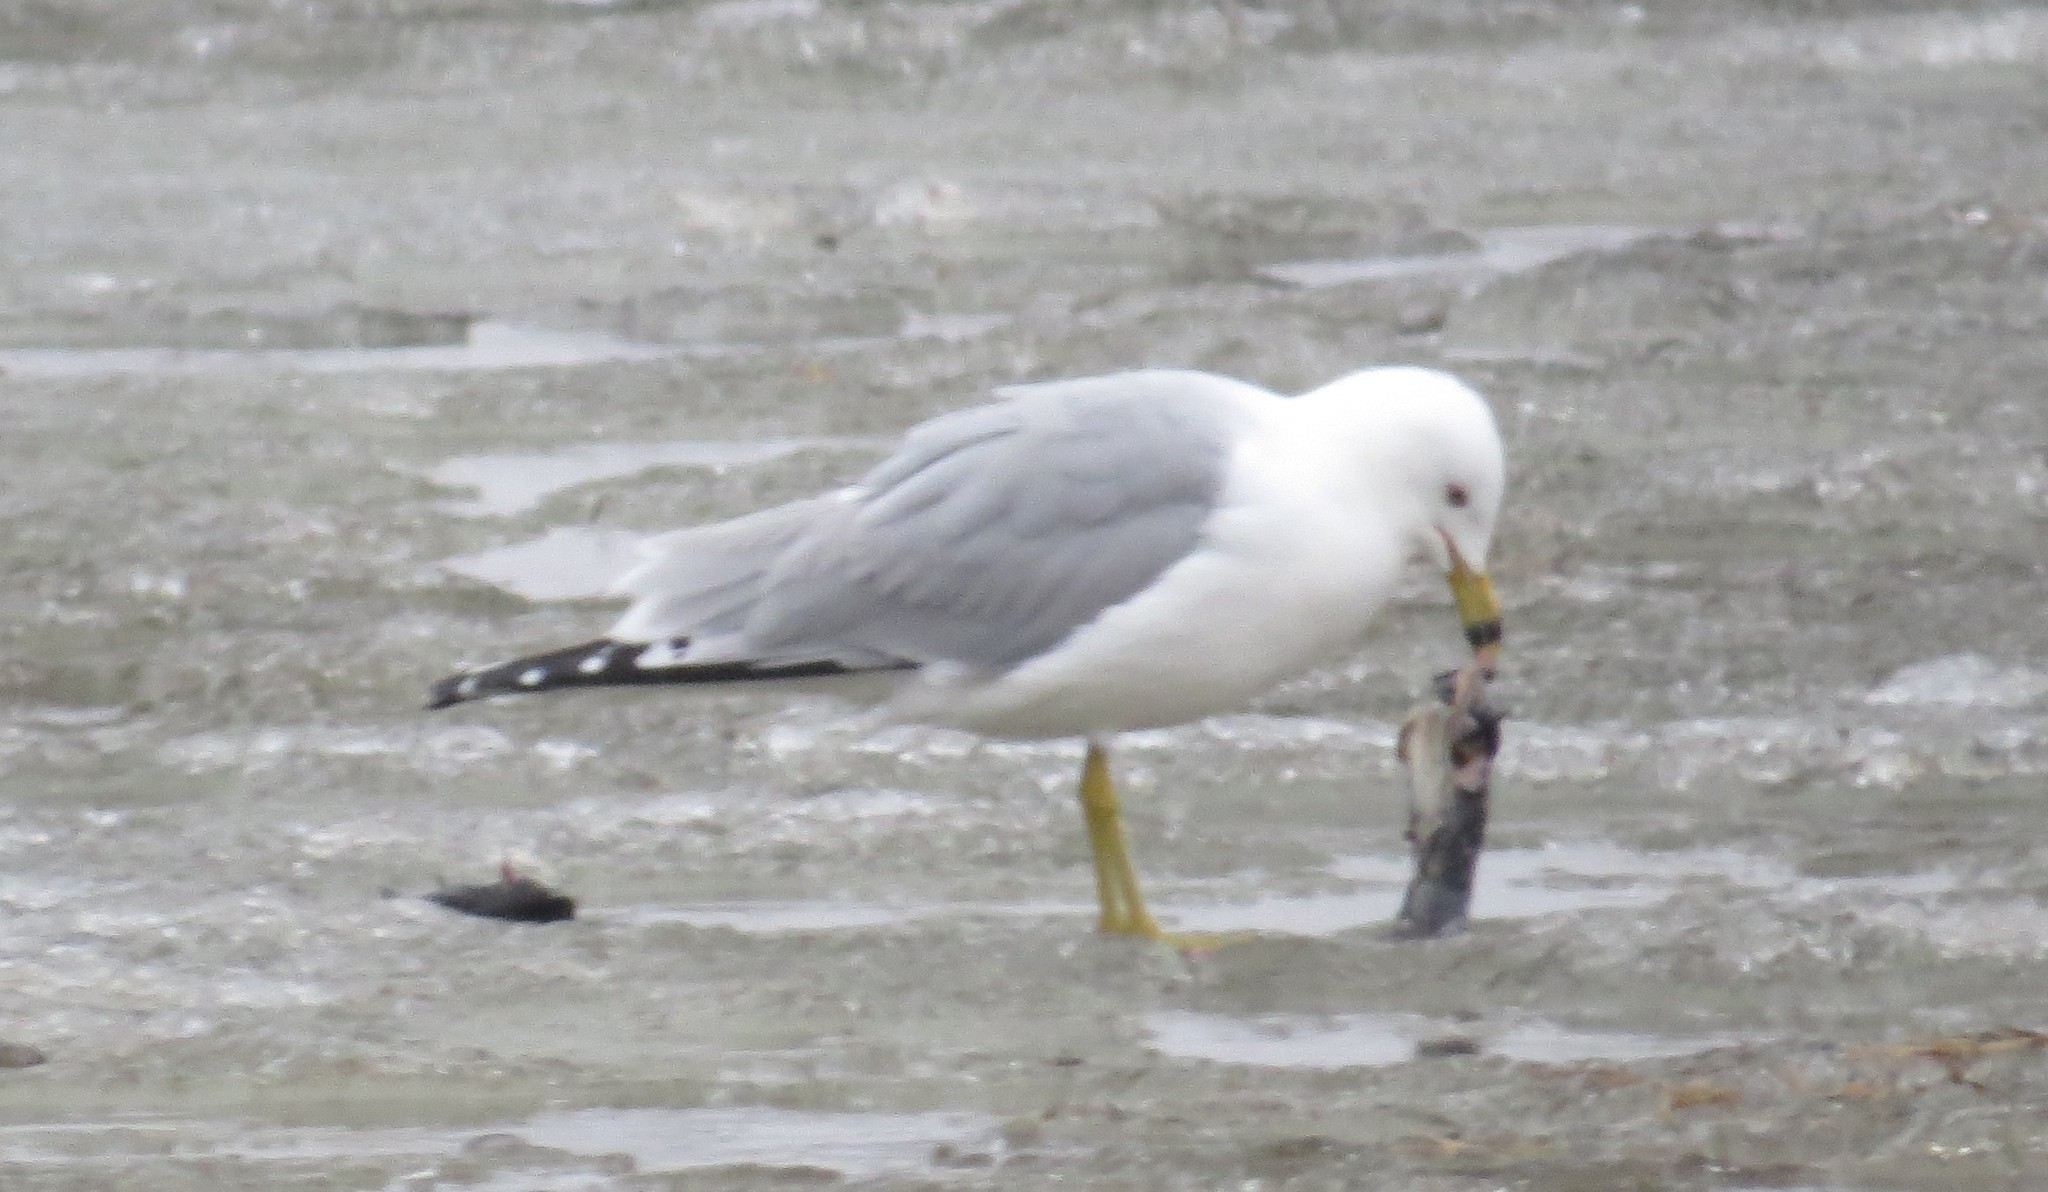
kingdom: Animalia
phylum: Chordata
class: Aves
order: Charadriiformes
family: Laridae
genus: Larus
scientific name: Larus delawarensis
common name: Ring-billed gull
